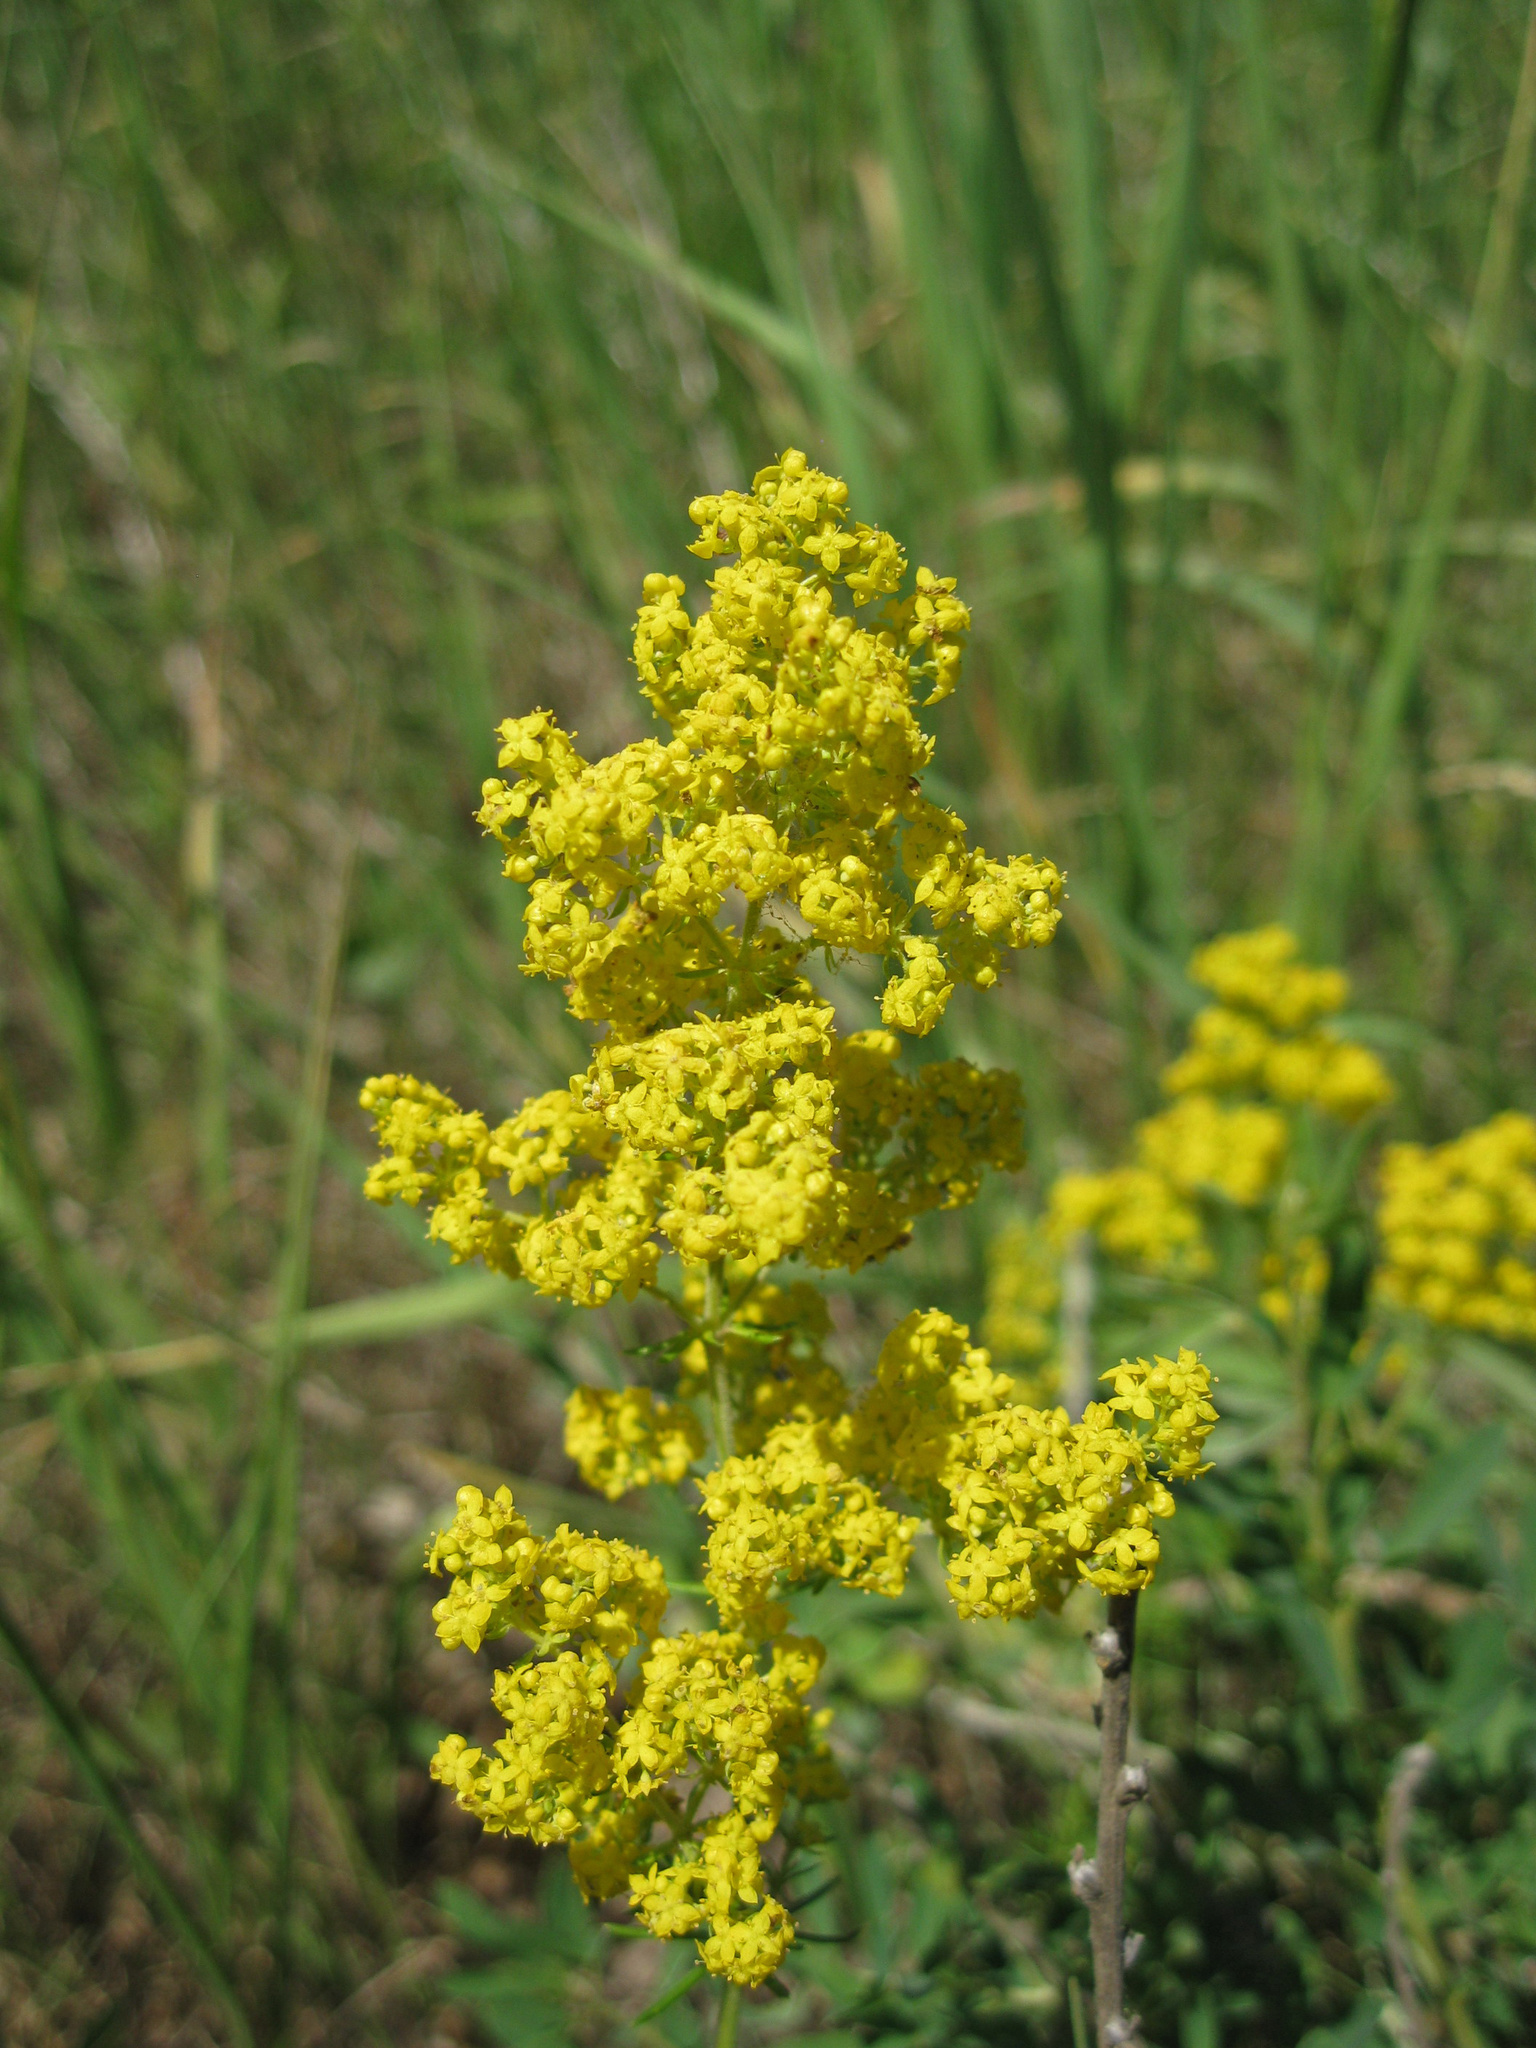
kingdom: Plantae
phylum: Tracheophyta
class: Magnoliopsida
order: Gentianales
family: Rubiaceae
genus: Galium
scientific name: Galium verum
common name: Lady's bedstraw
